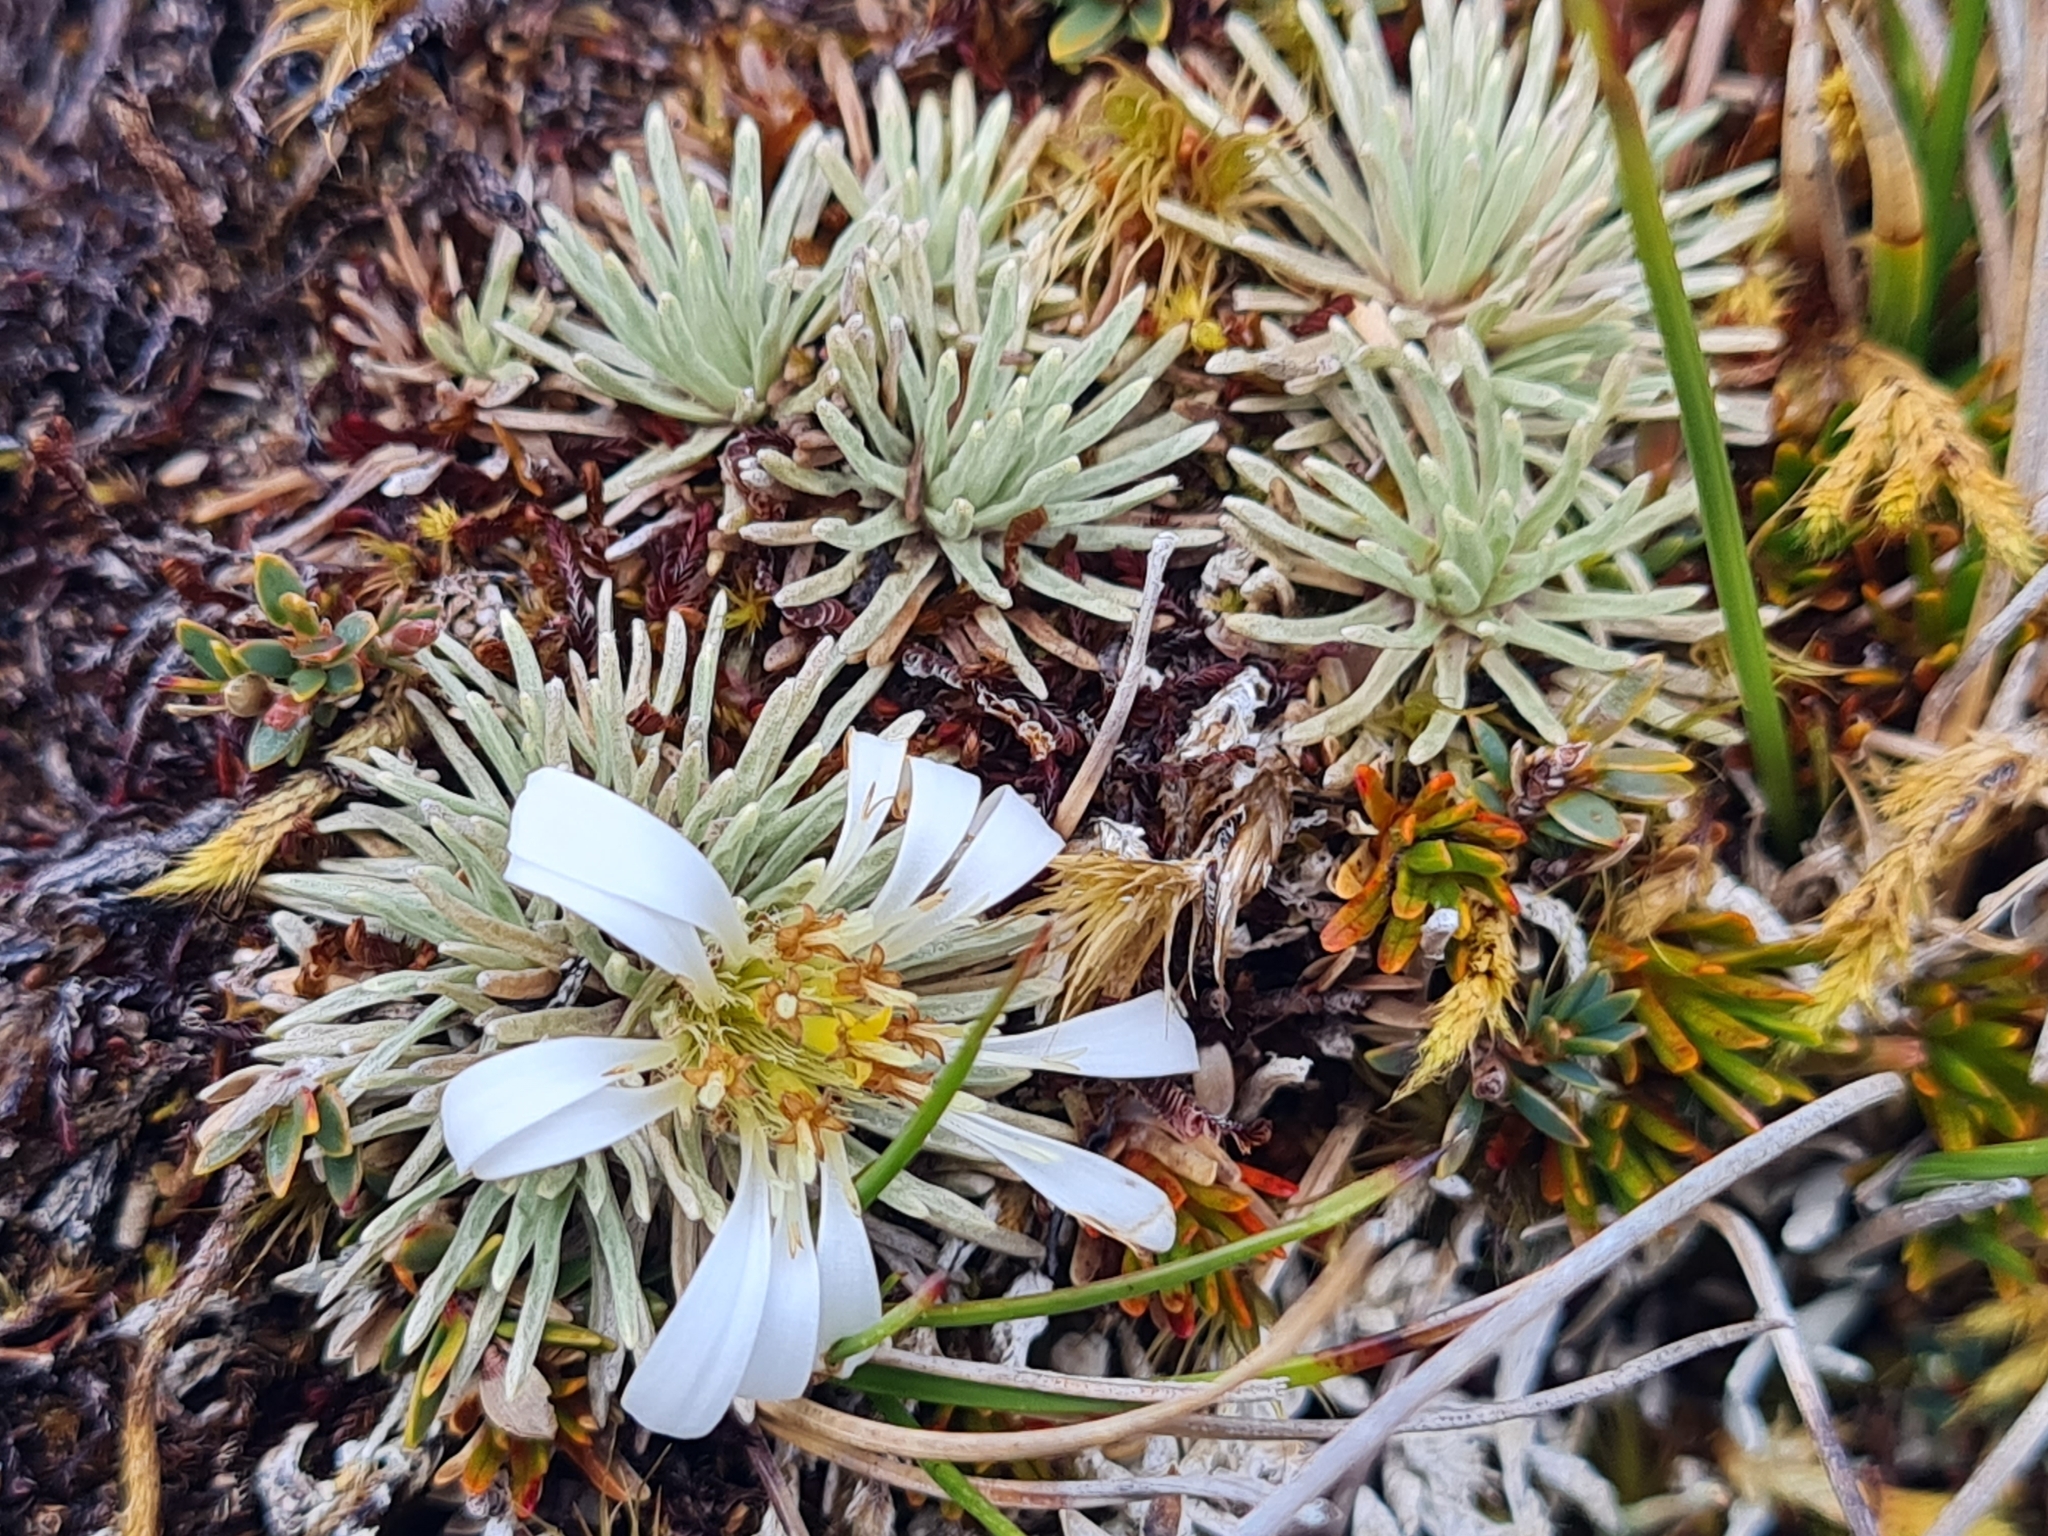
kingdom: Plantae
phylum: Tracheophyta
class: Magnoliopsida
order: Asterales
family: Asteraceae
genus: Celmisia
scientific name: Celmisia sessiliflora
